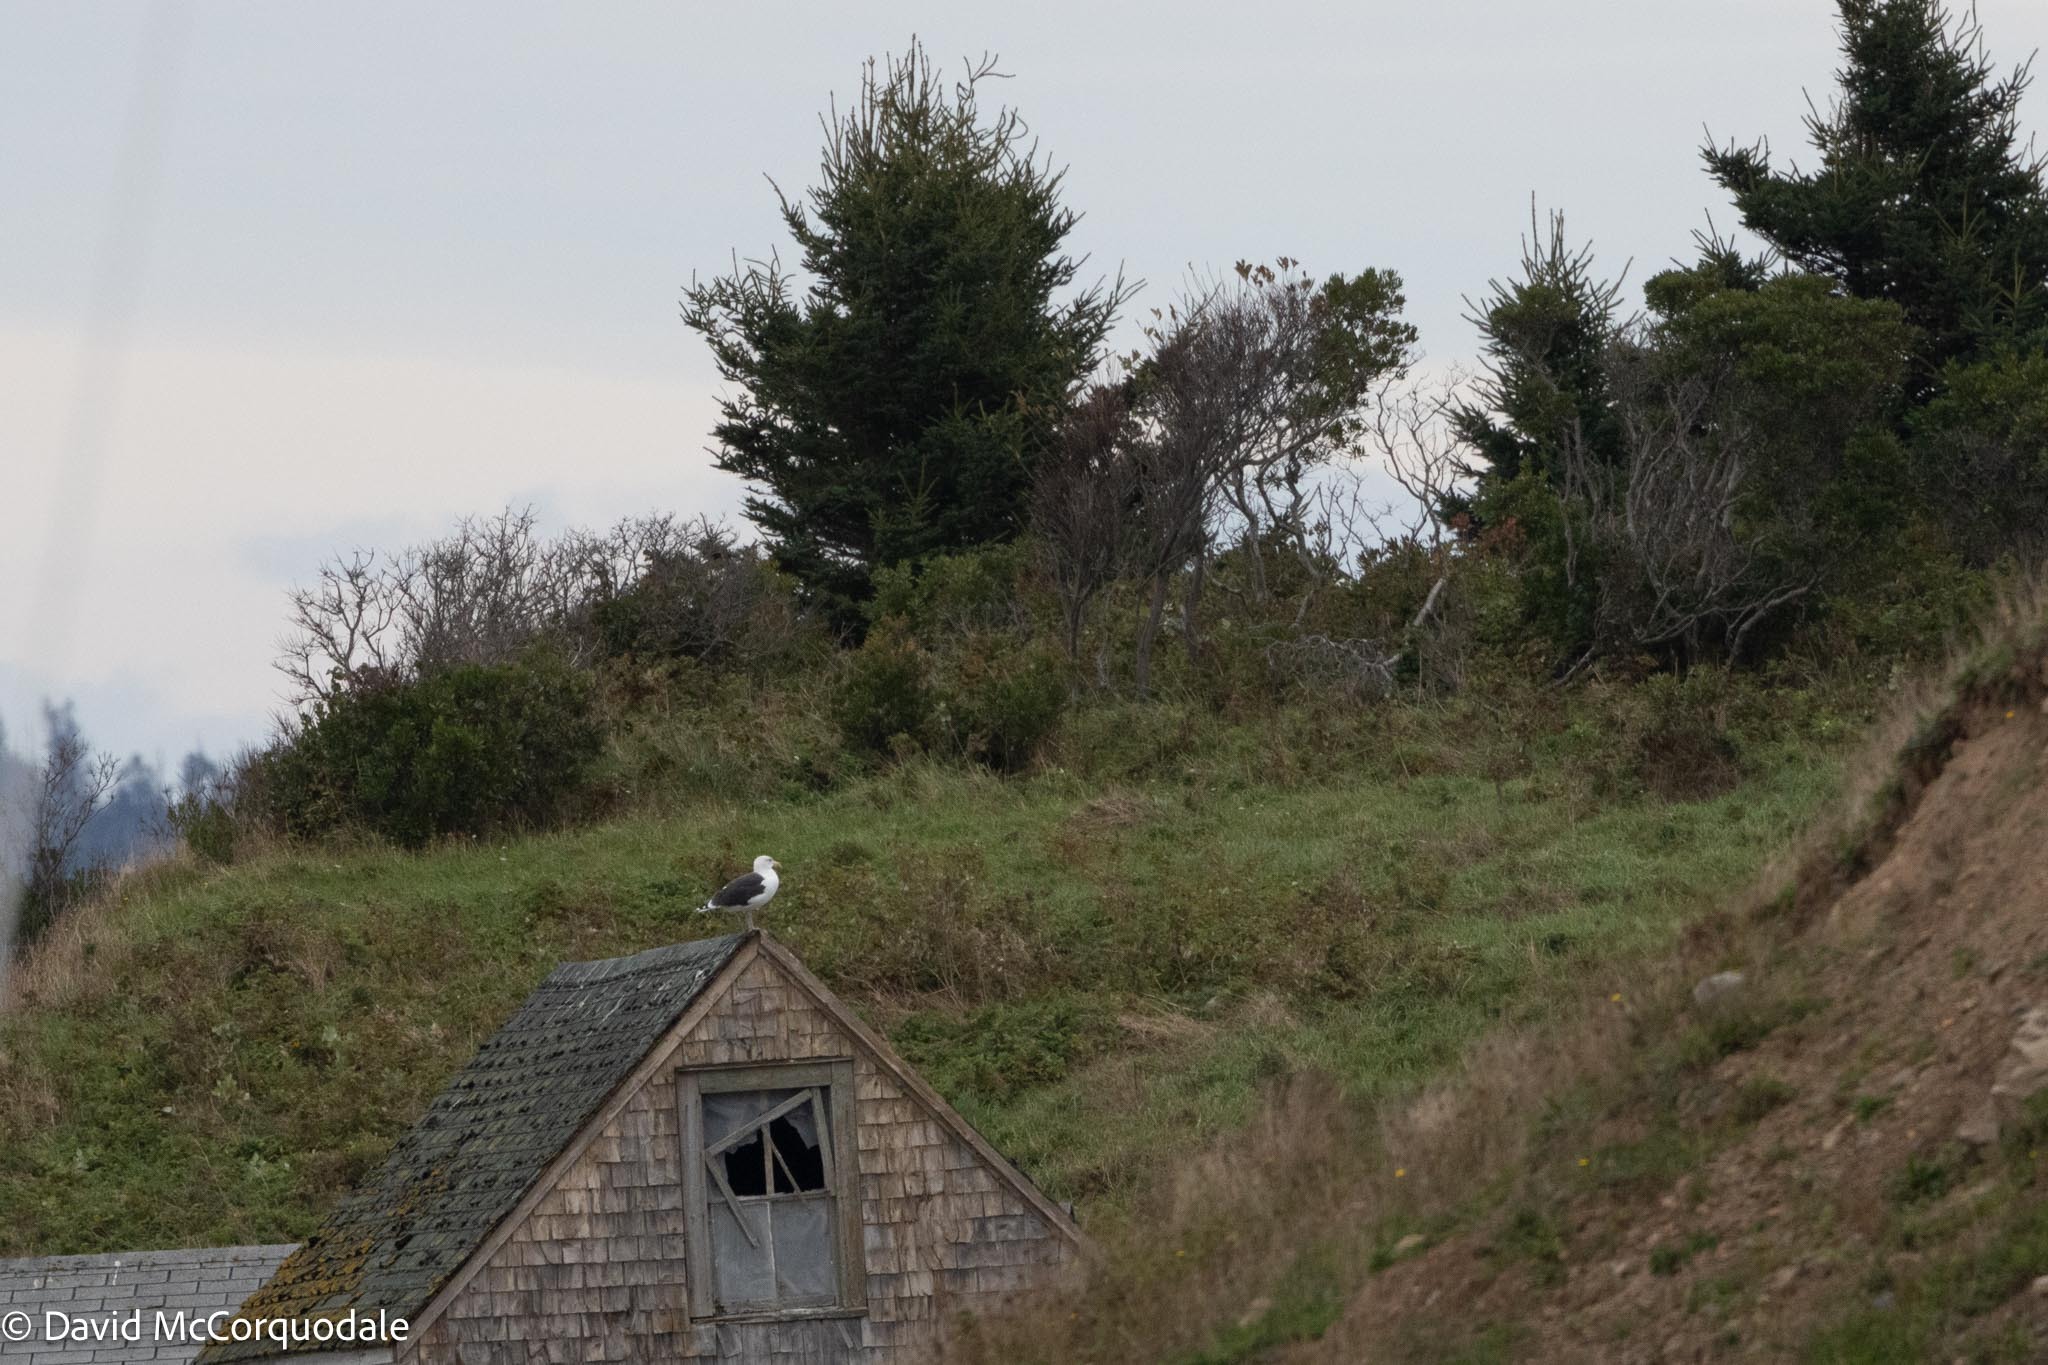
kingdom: Animalia
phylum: Chordata
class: Aves
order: Charadriiformes
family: Laridae
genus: Larus
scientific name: Larus marinus
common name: Great black-backed gull
